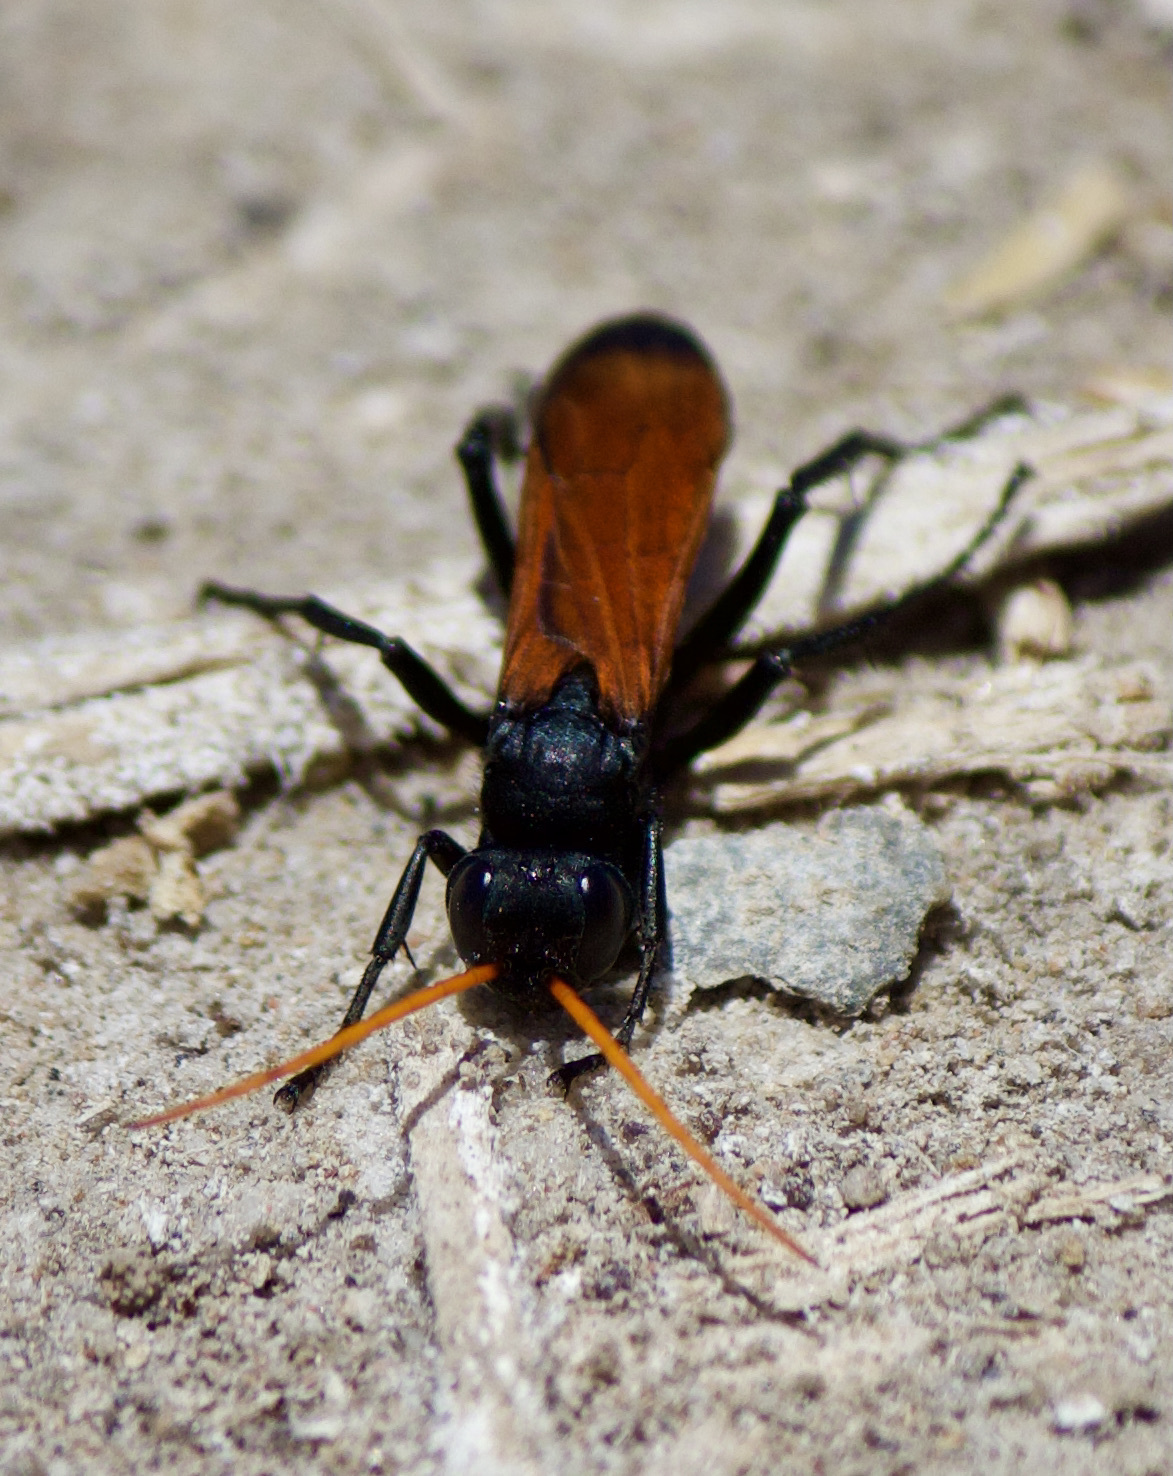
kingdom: Animalia
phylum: Arthropoda
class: Insecta
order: Hymenoptera
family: Pompilidae
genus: Entypus
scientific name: Entypus unifasciatus
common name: Eastern tawny-horned spider wasp
